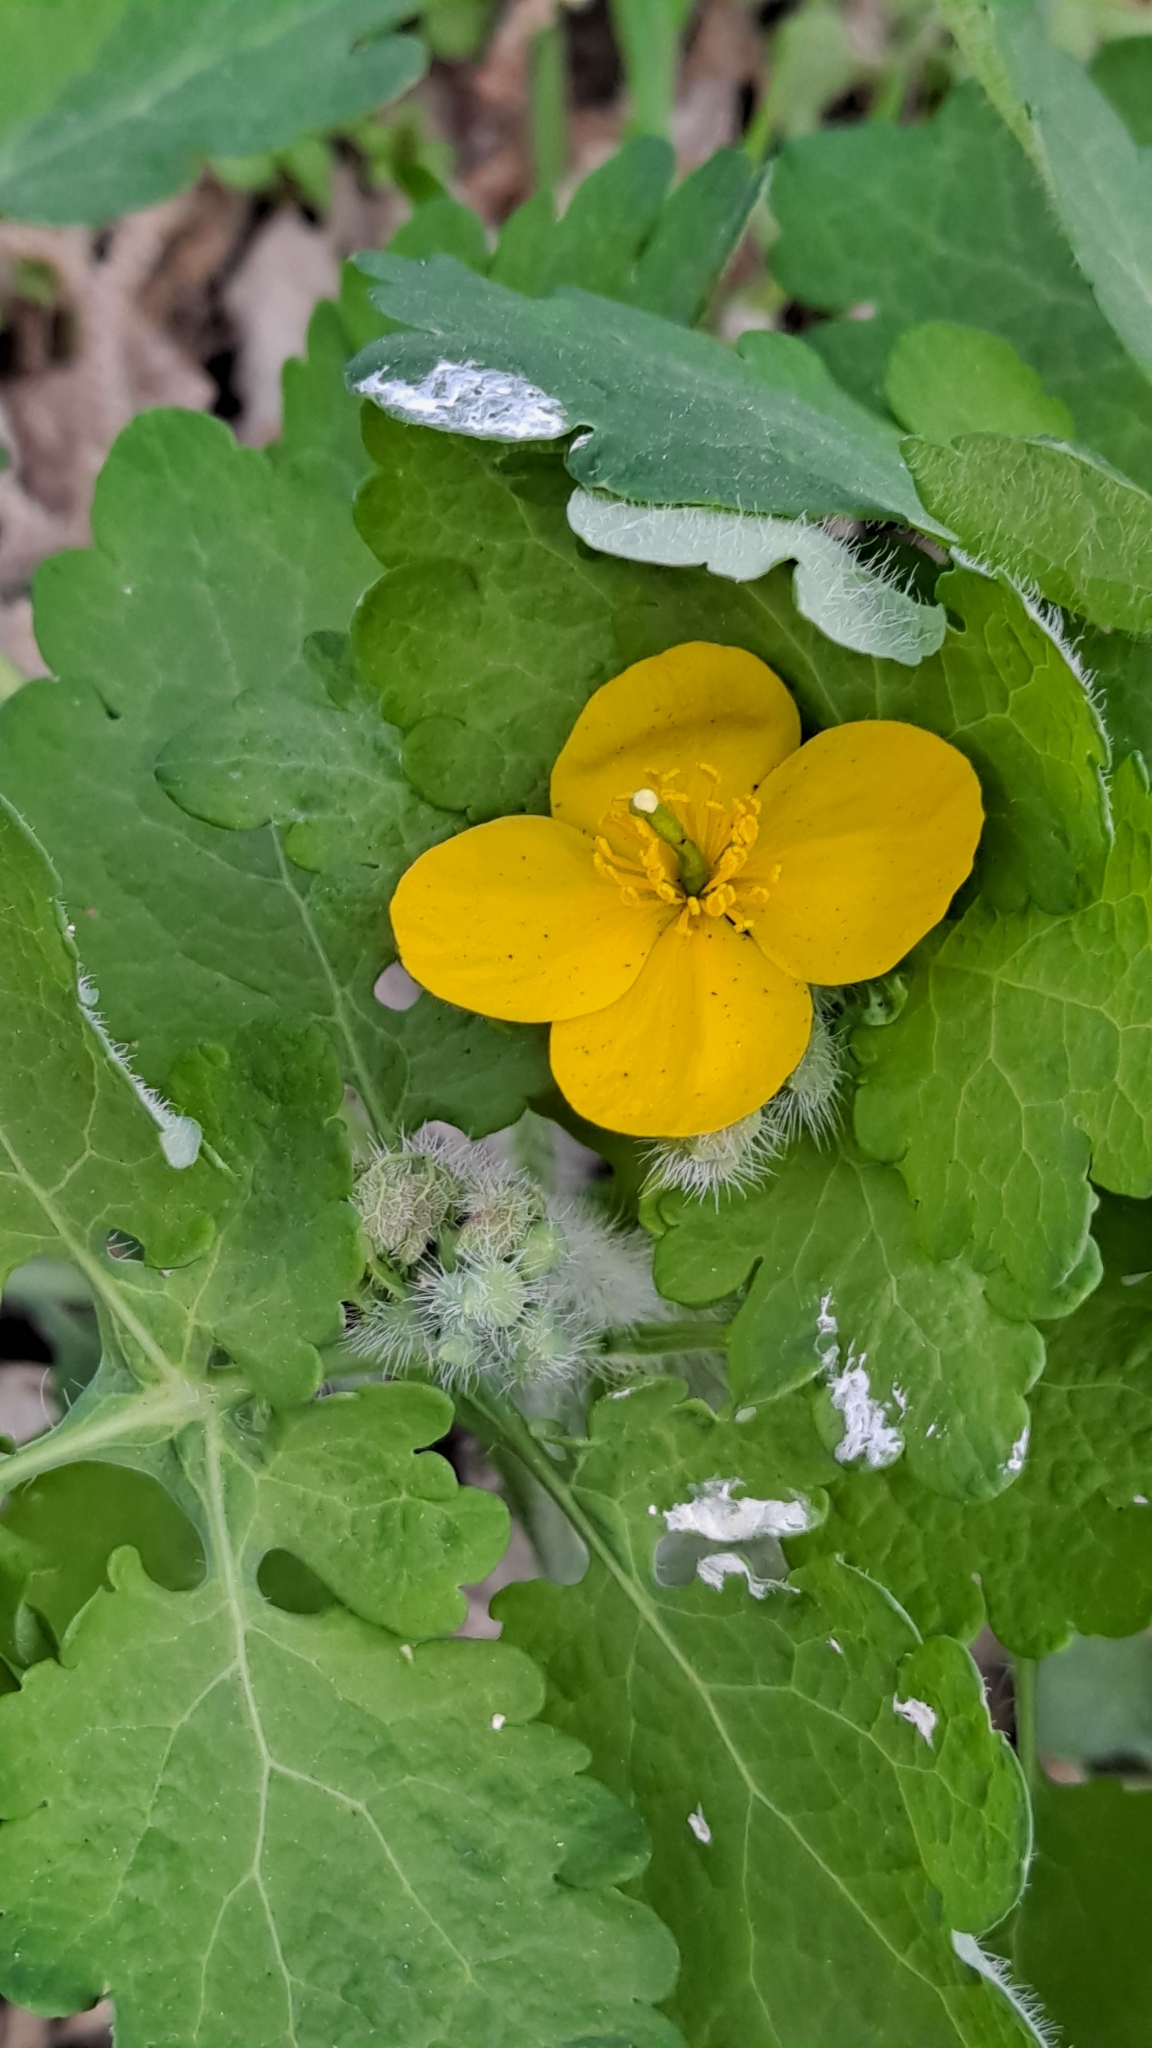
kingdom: Plantae
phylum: Tracheophyta
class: Magnoliopsida
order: Ranunculales
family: Papaveraceae
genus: Chelidonium
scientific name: Chelidonium majus
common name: Greater celandine
